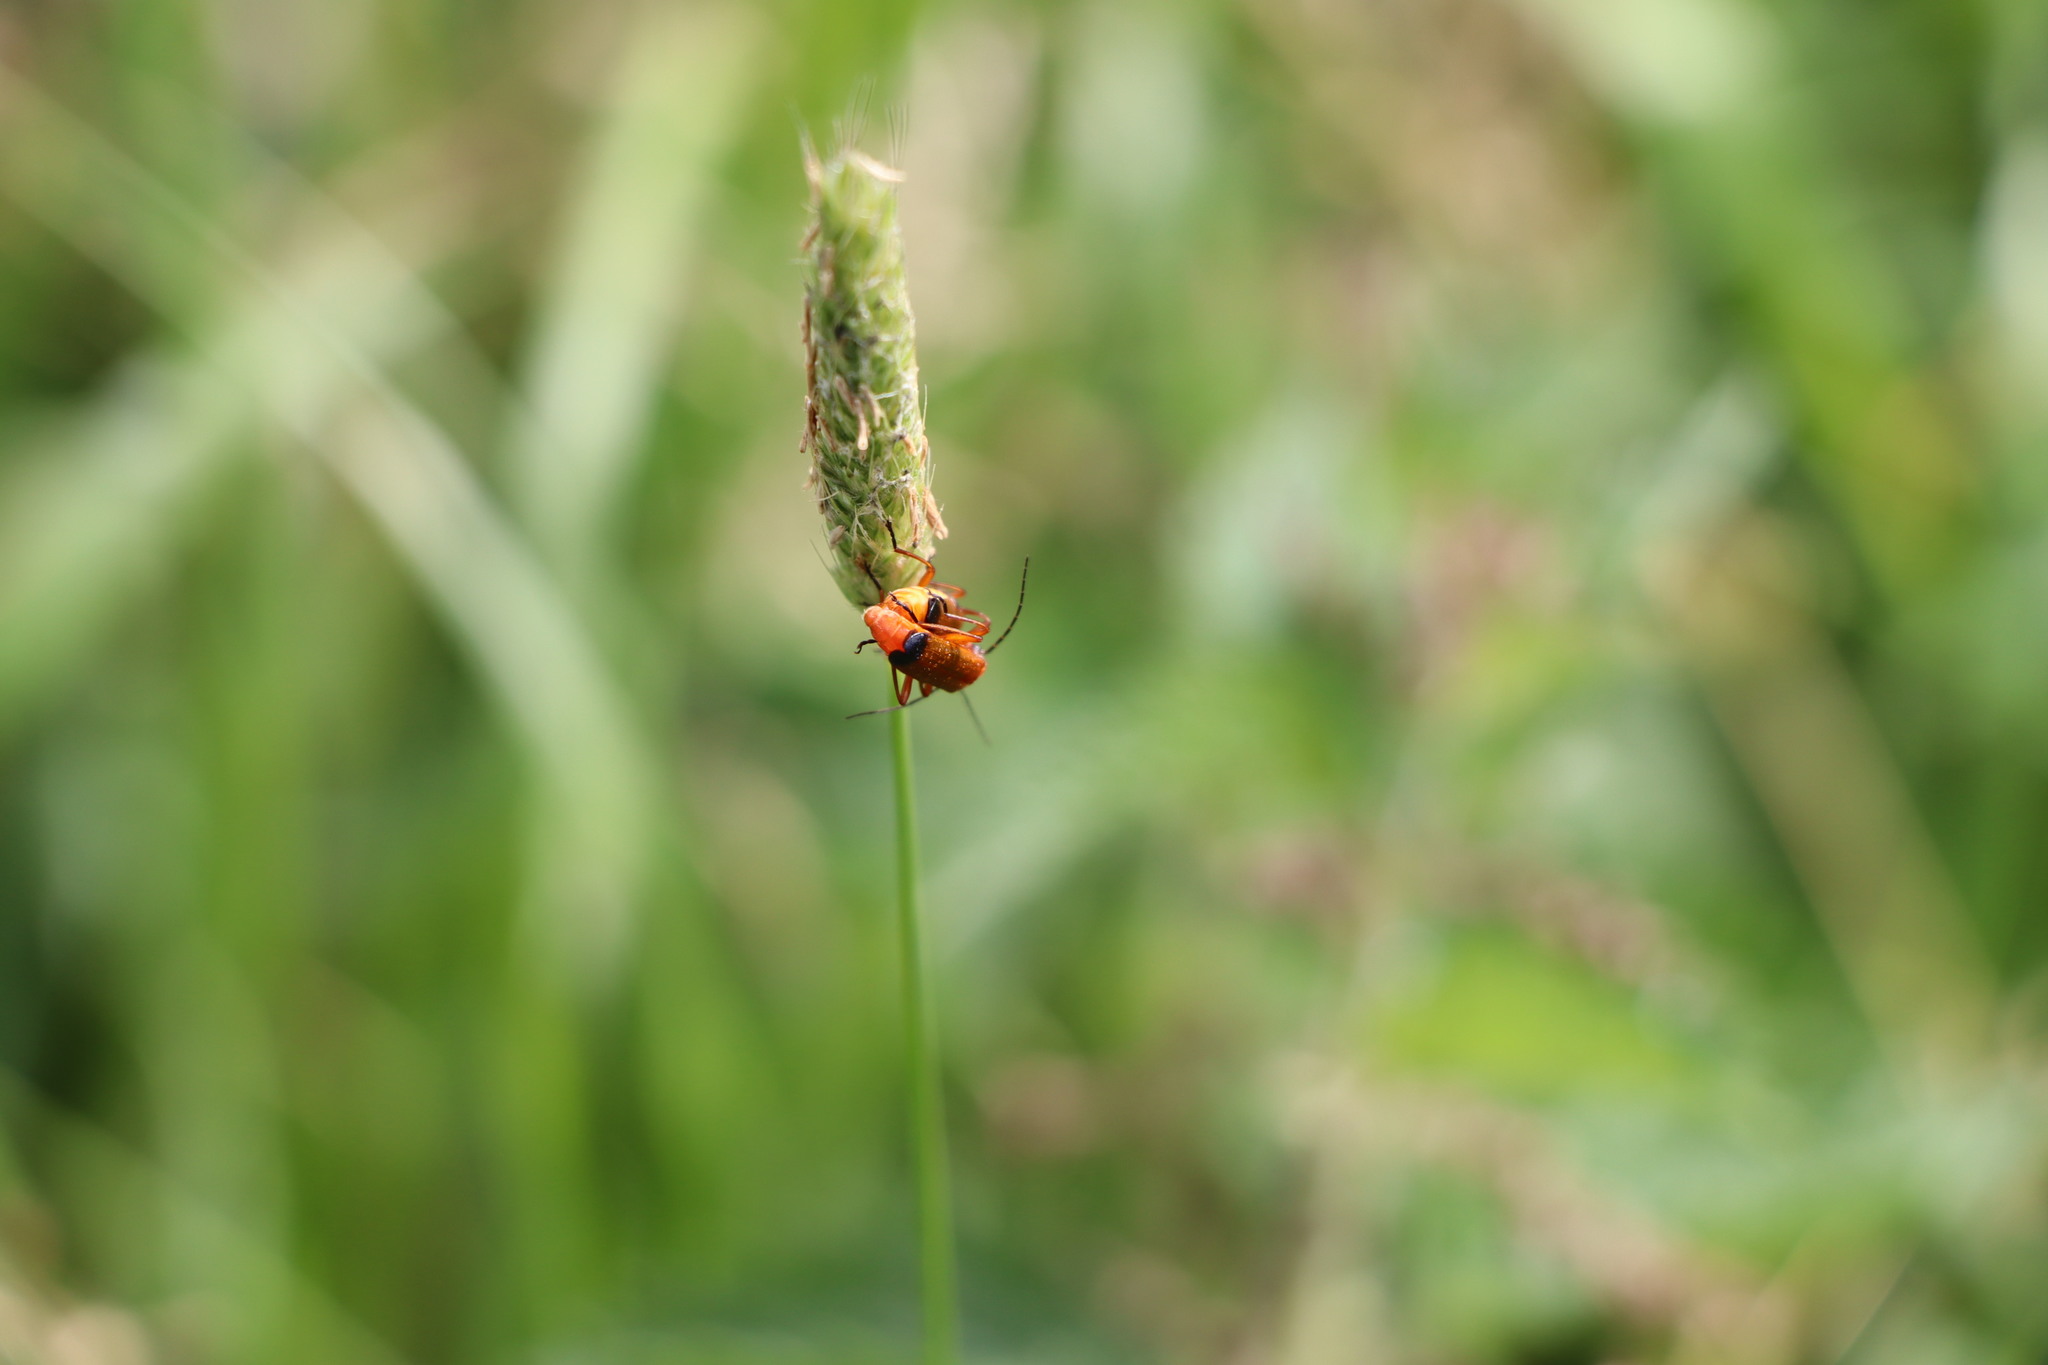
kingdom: Animalia
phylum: Arthropoda
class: Insecta
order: Coleoptera
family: Cantharidae
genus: Rhagonycha
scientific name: Rhagonycha fulva
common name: Common red soldier beetle
